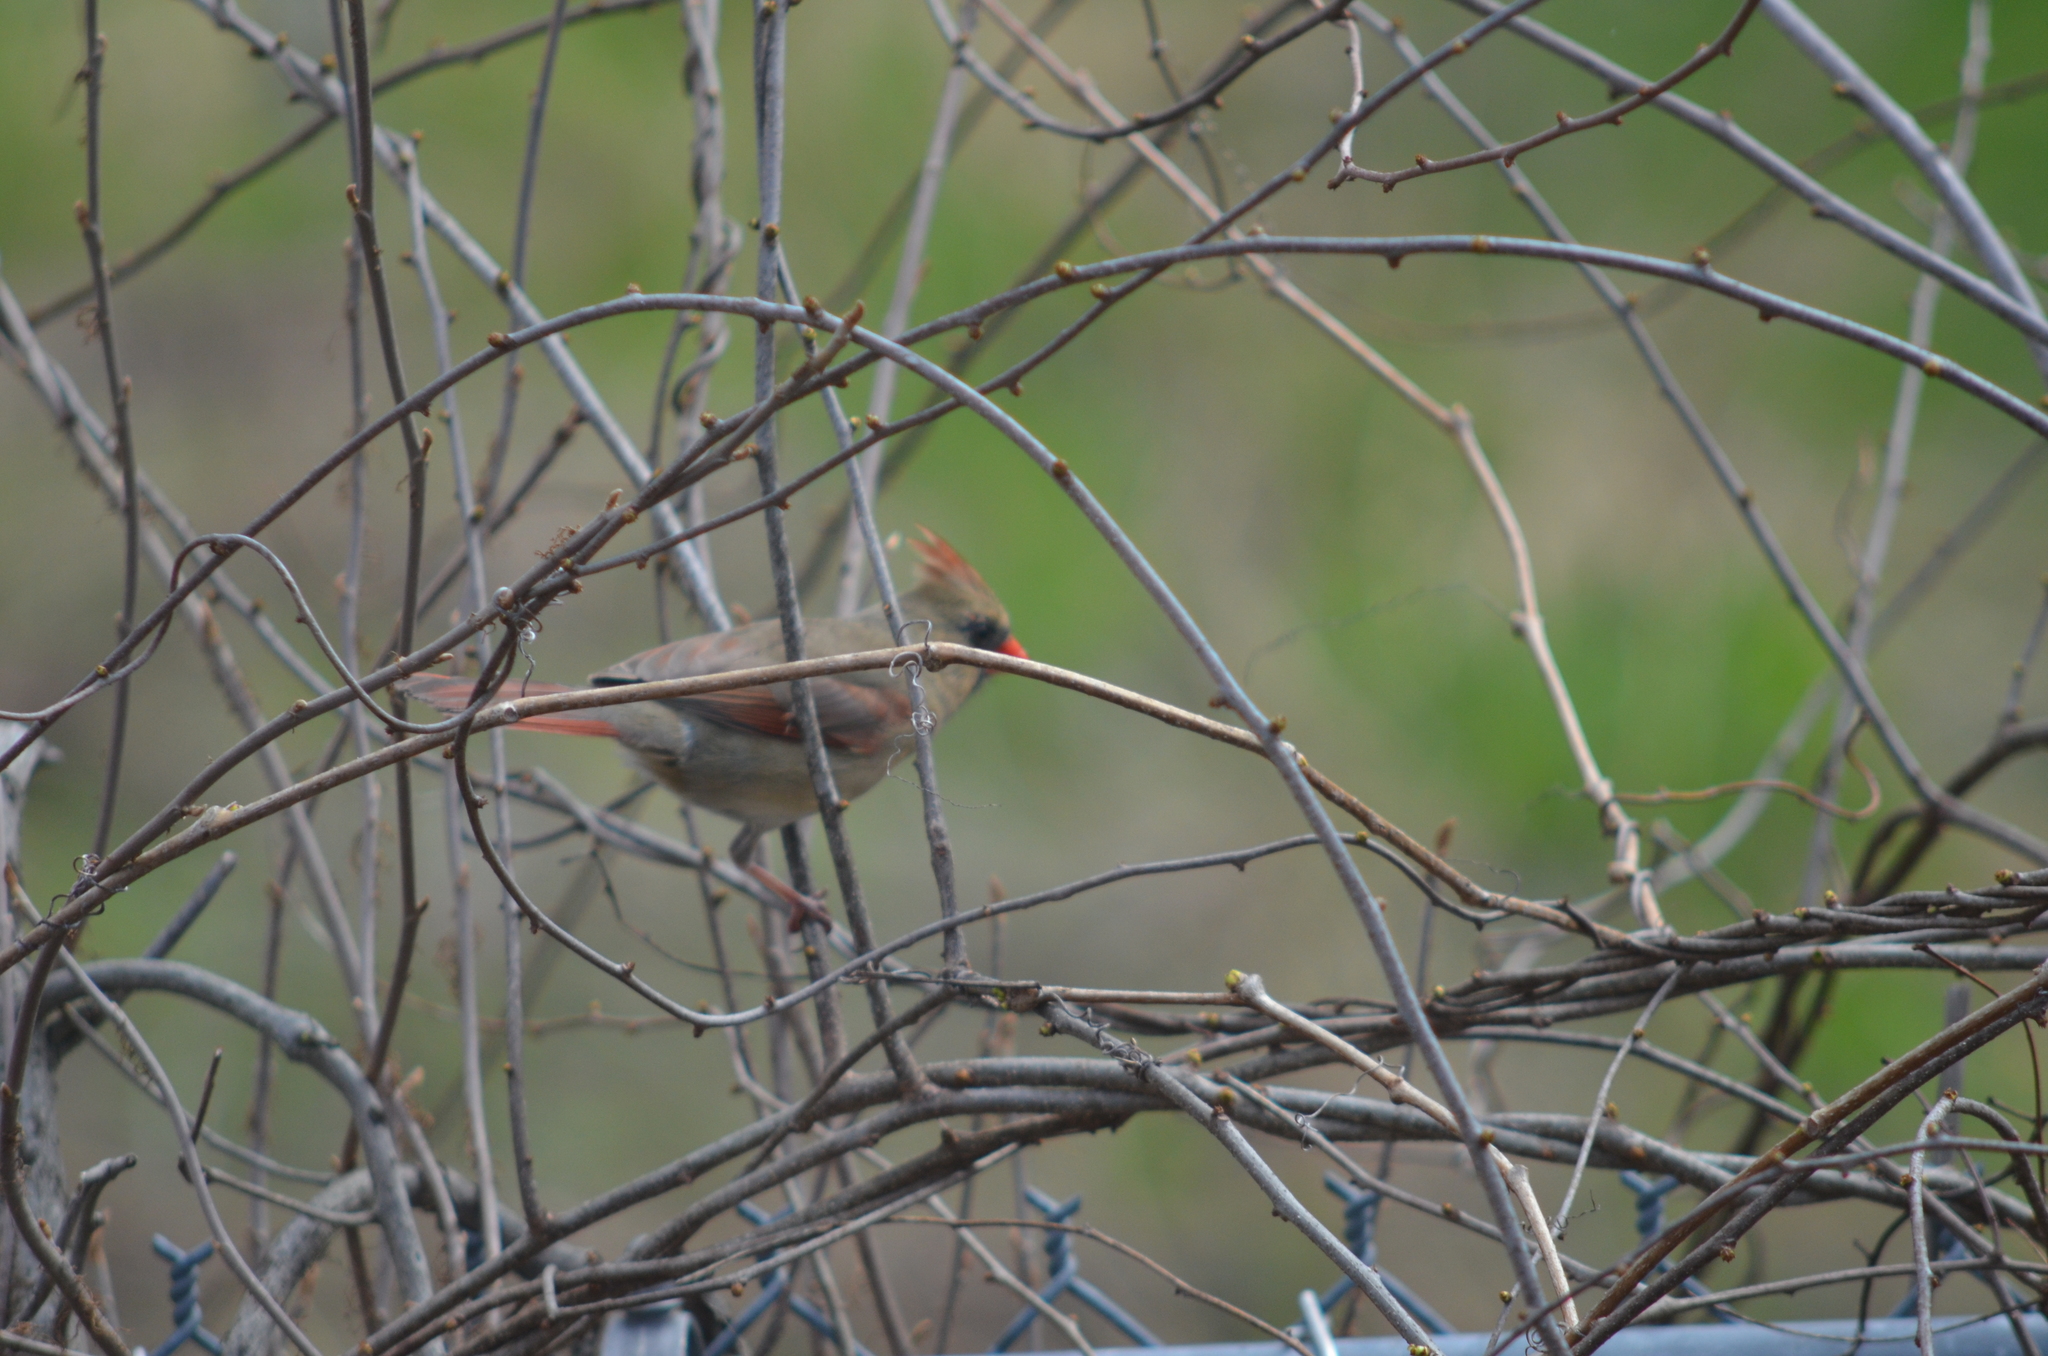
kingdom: Animalia
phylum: Chordata
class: Aves
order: Passeriformes
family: Cardinalidae
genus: Cardinalis
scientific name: Cardinalis cardinalis
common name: Northern cardinal
